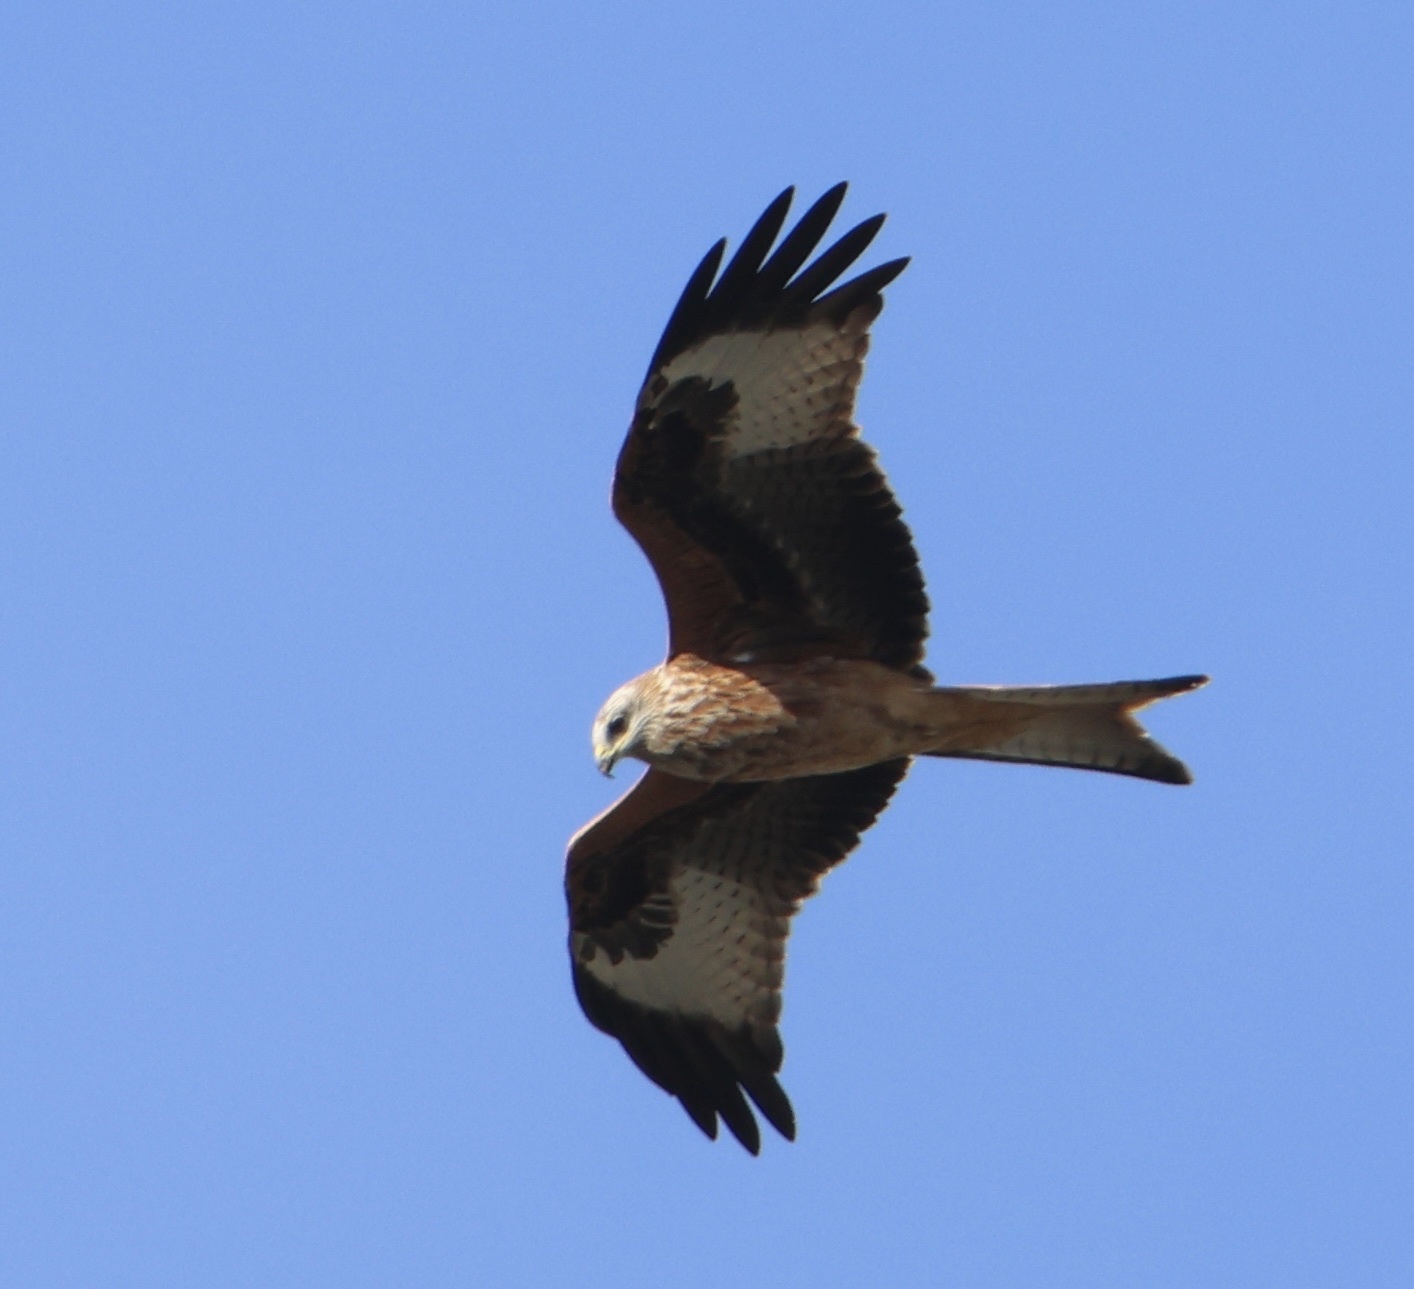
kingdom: Animalia
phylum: Chordata
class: Aves
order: Accipitriformes
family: Accipitridae
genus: Milvus
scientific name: Milvus milvus
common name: Red kite
